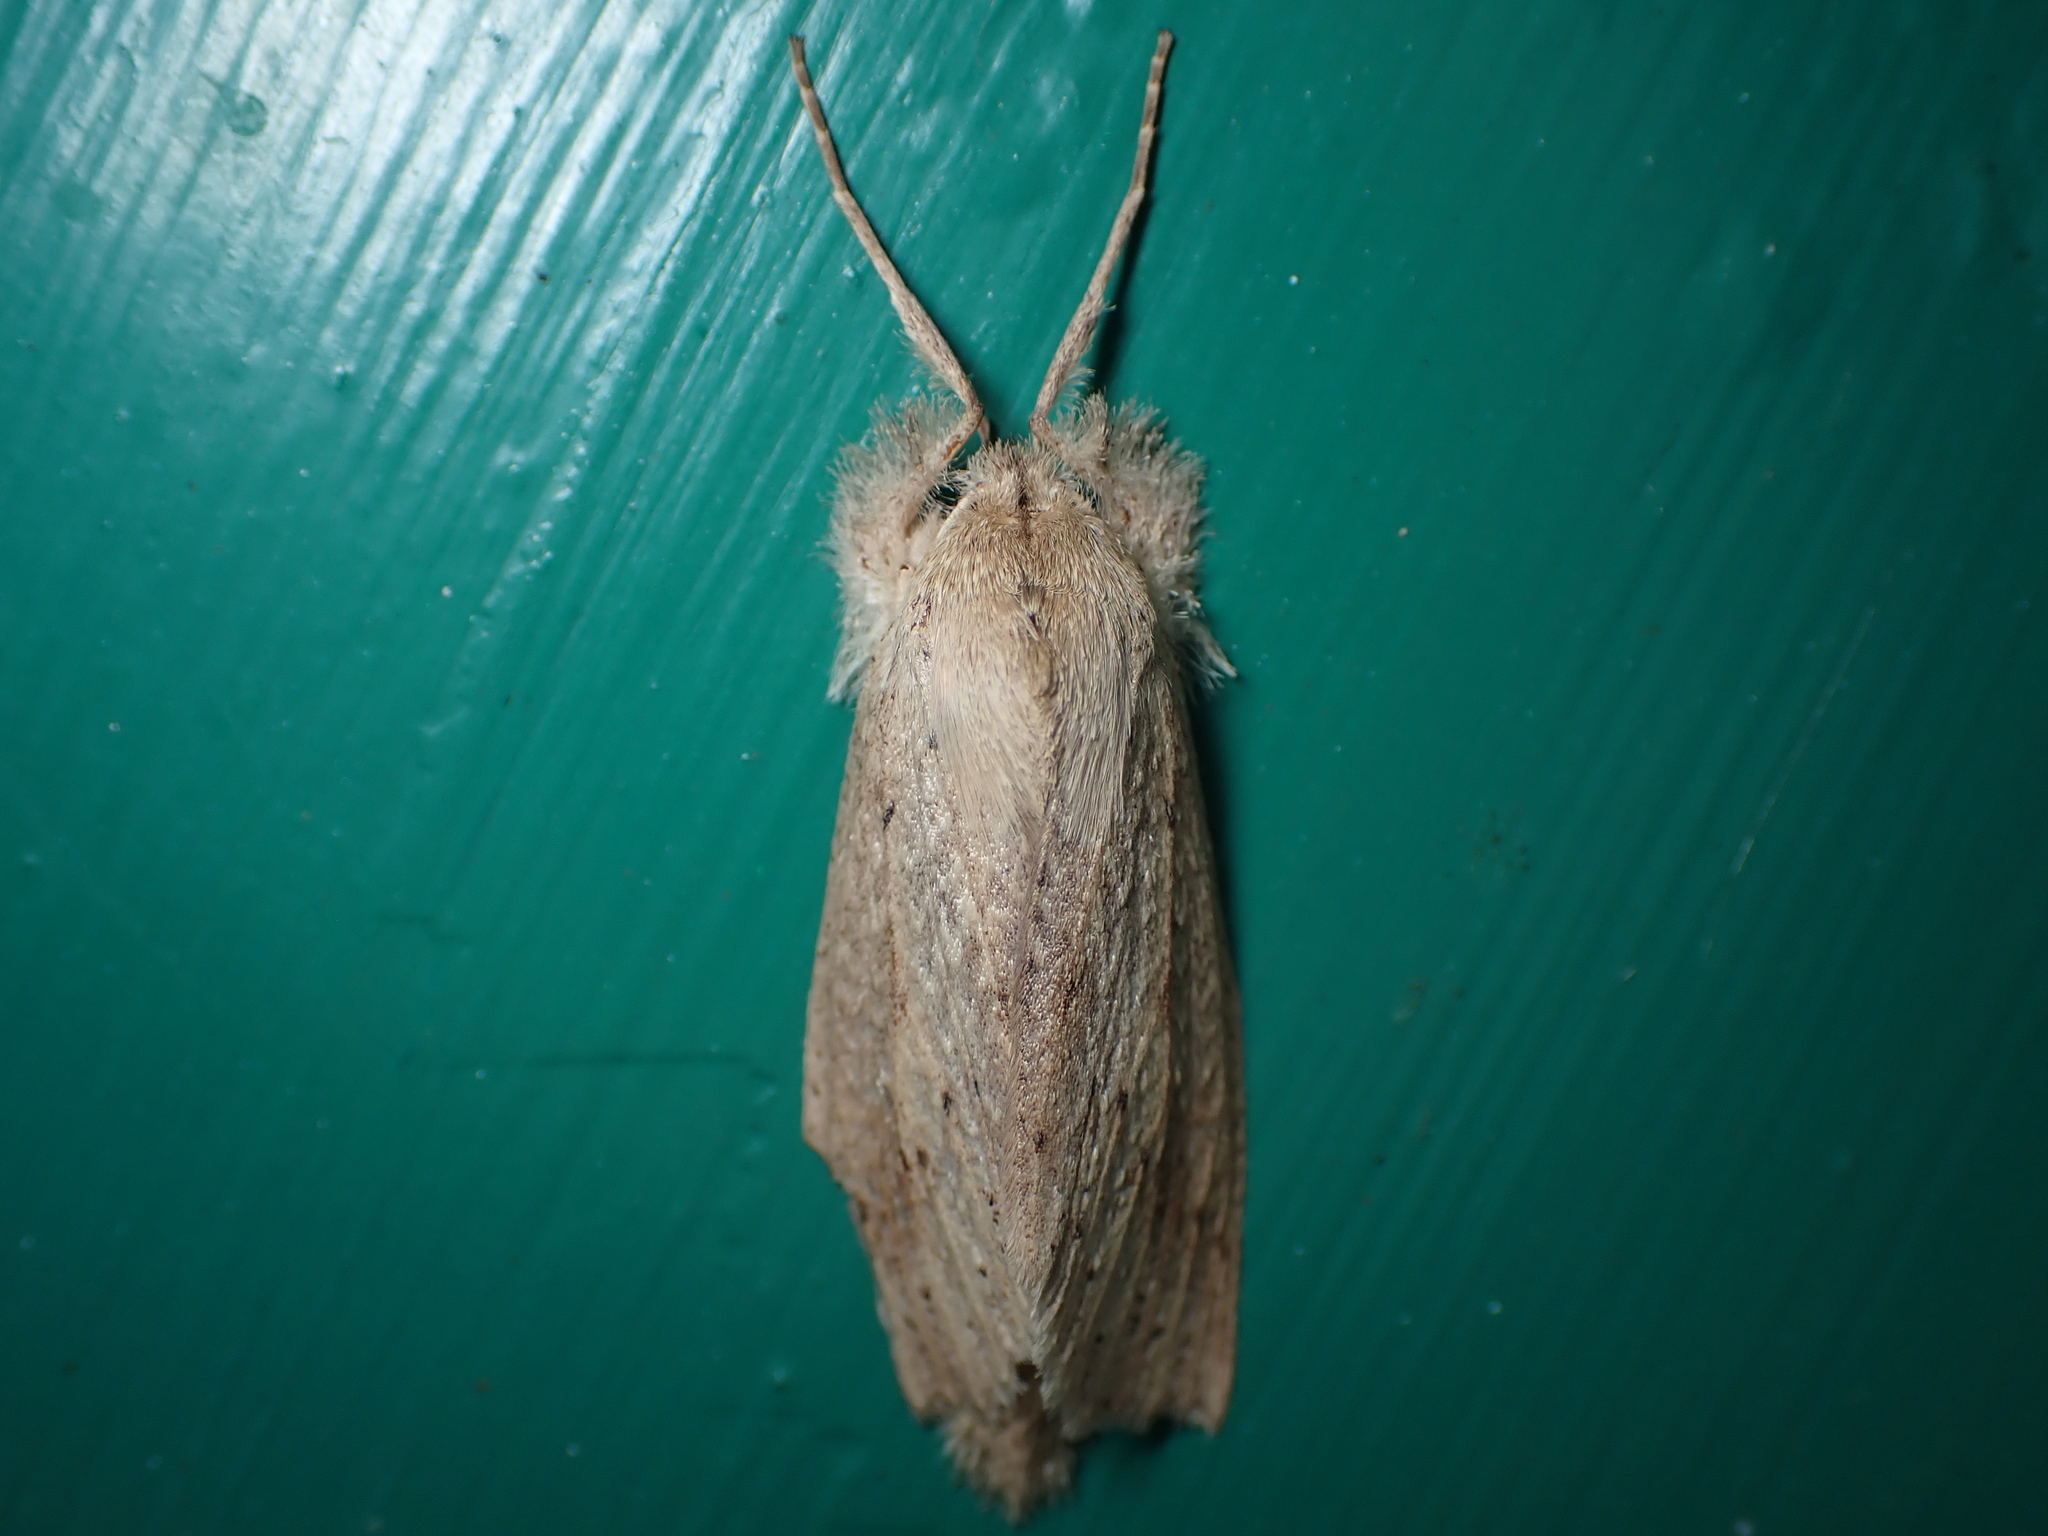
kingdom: Animalia
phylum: Arthropoda
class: Insecta
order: Lepidoptera
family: Geometridae
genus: Declana
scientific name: Declana leptomera
